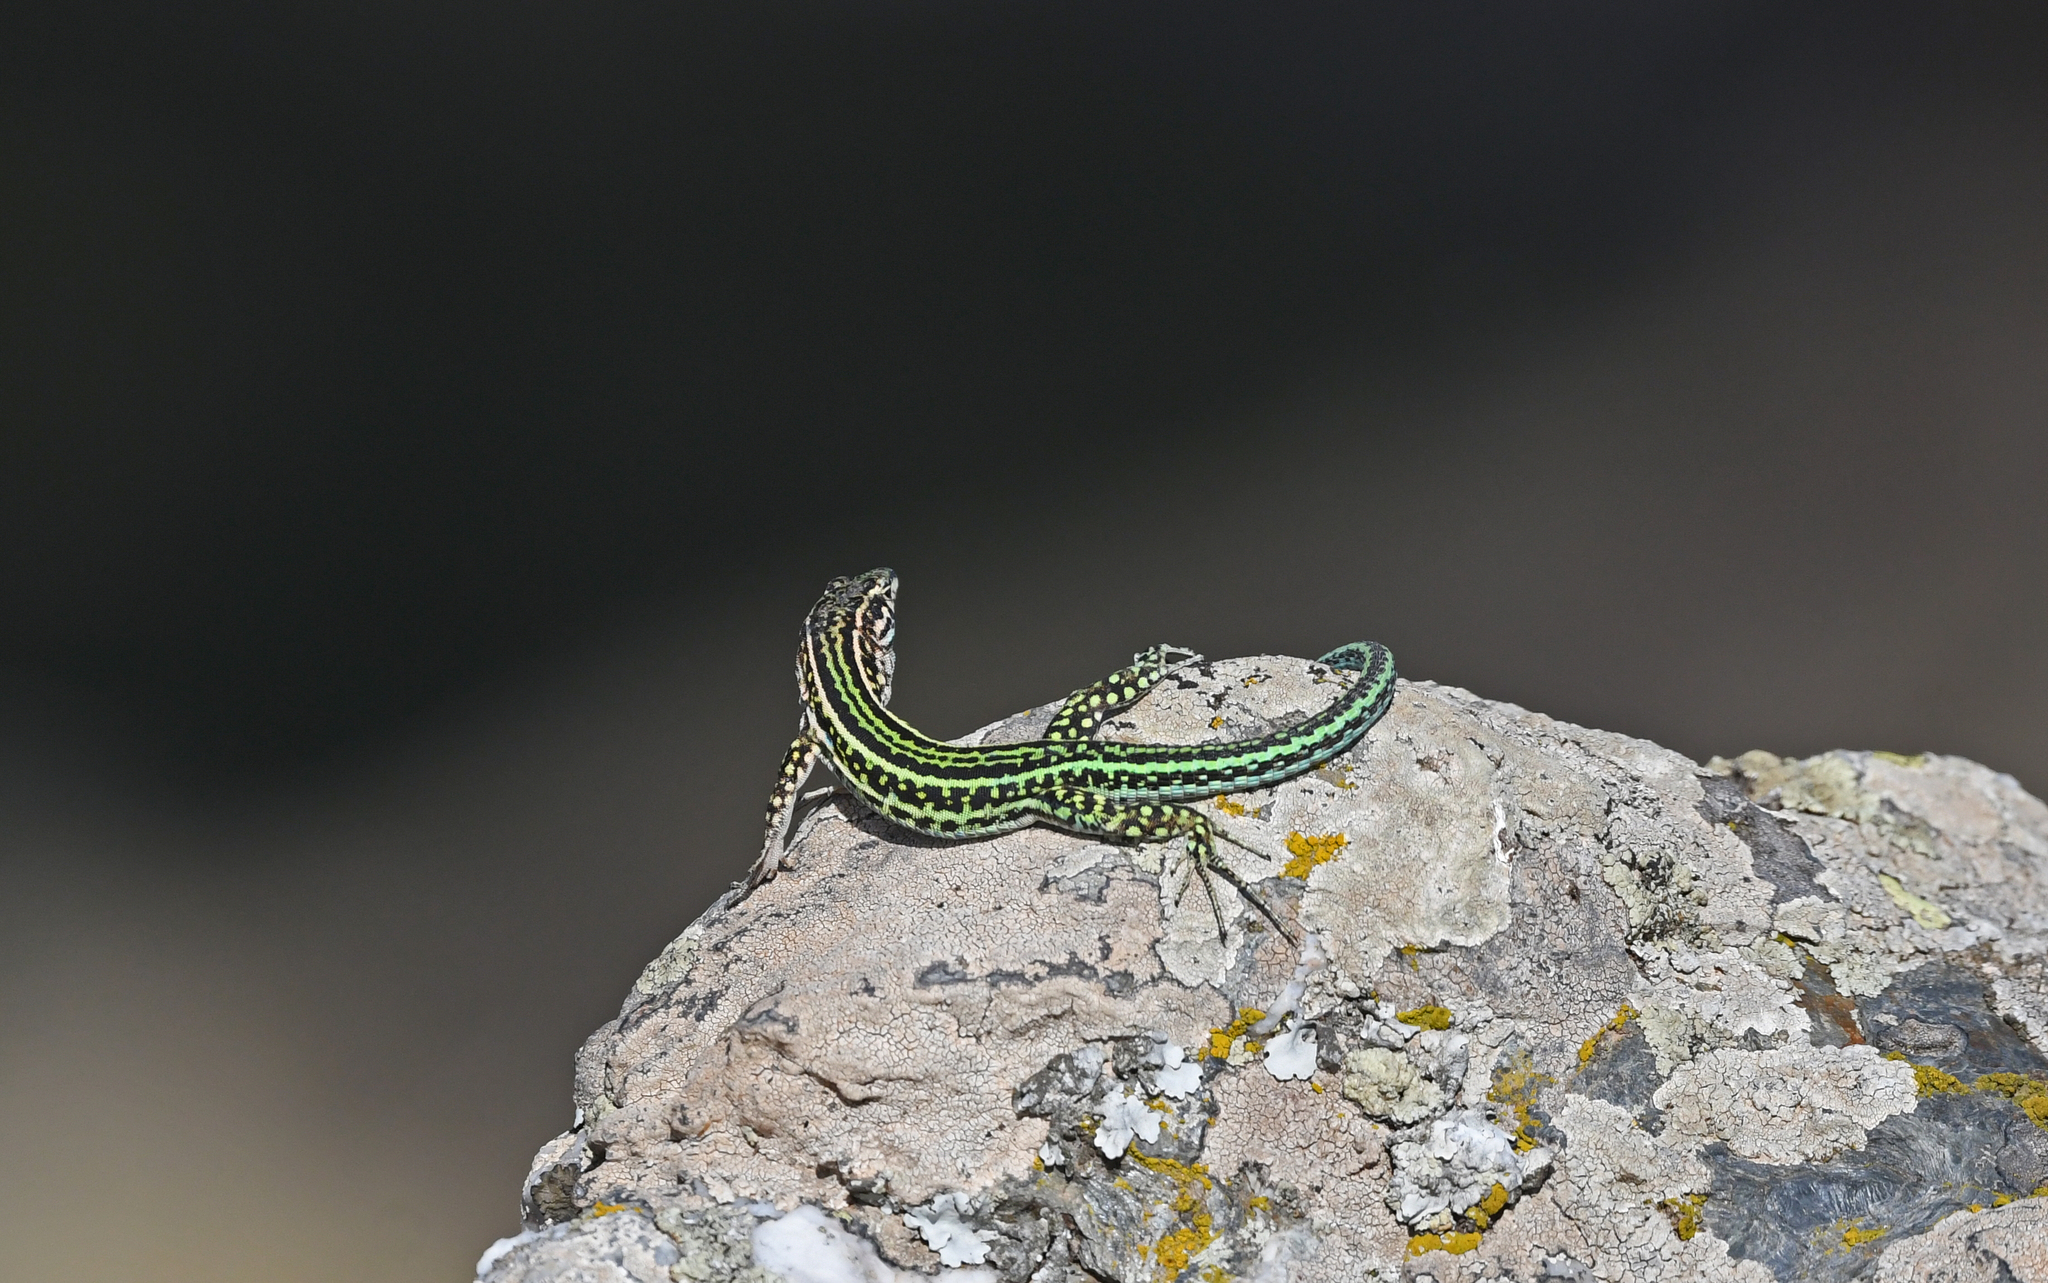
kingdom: Animalia
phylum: Chordata
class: Squamata
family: Lacertidae
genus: Podarcis
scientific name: Podarcis tiliguerta
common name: Tyrrhenian wall lizard
